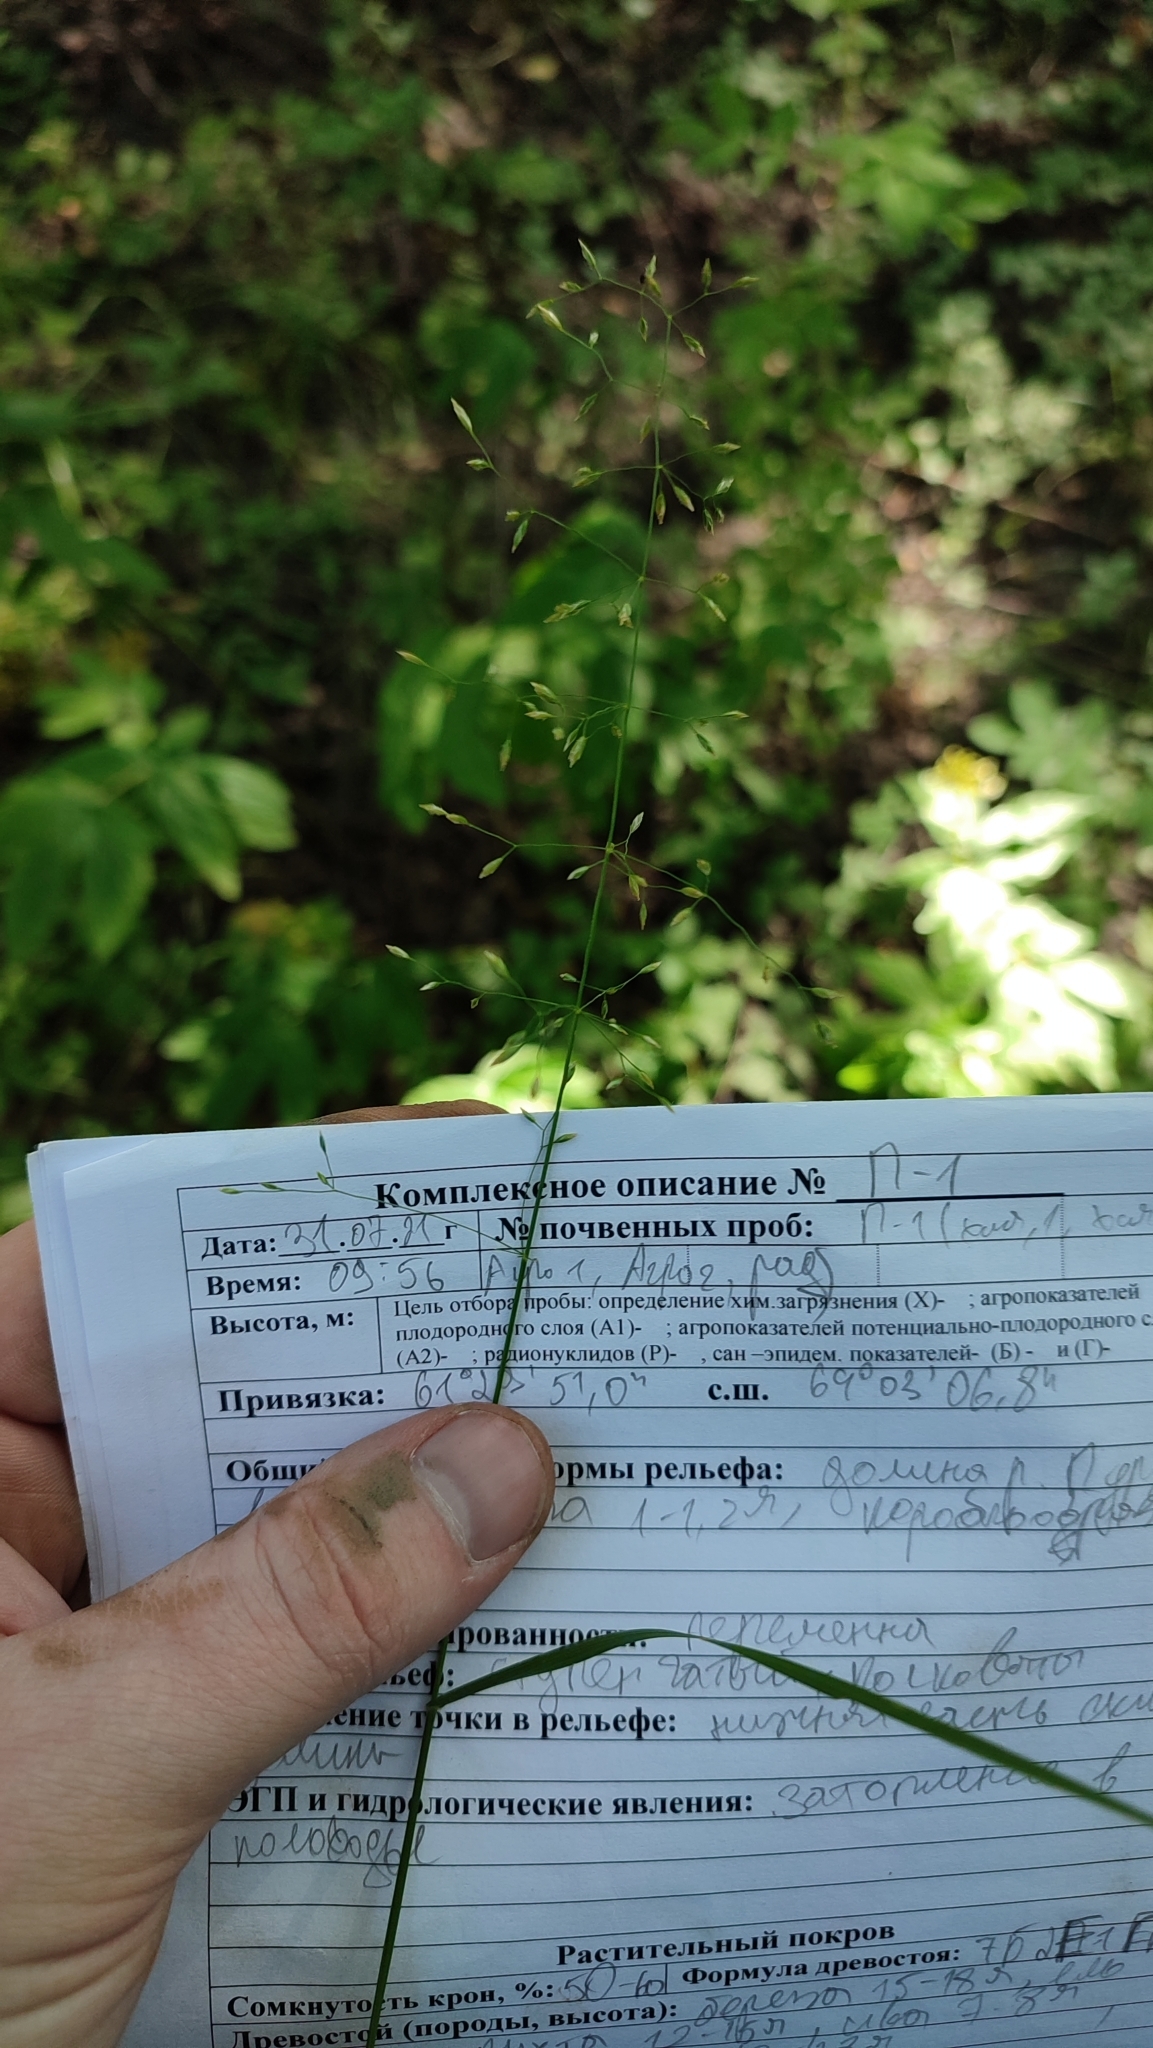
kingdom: Plantae
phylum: Tracheophyta
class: Liliopsida
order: Poales
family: Poaceae
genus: Poa
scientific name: Poa palustris
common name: Swamp meadow-grass
